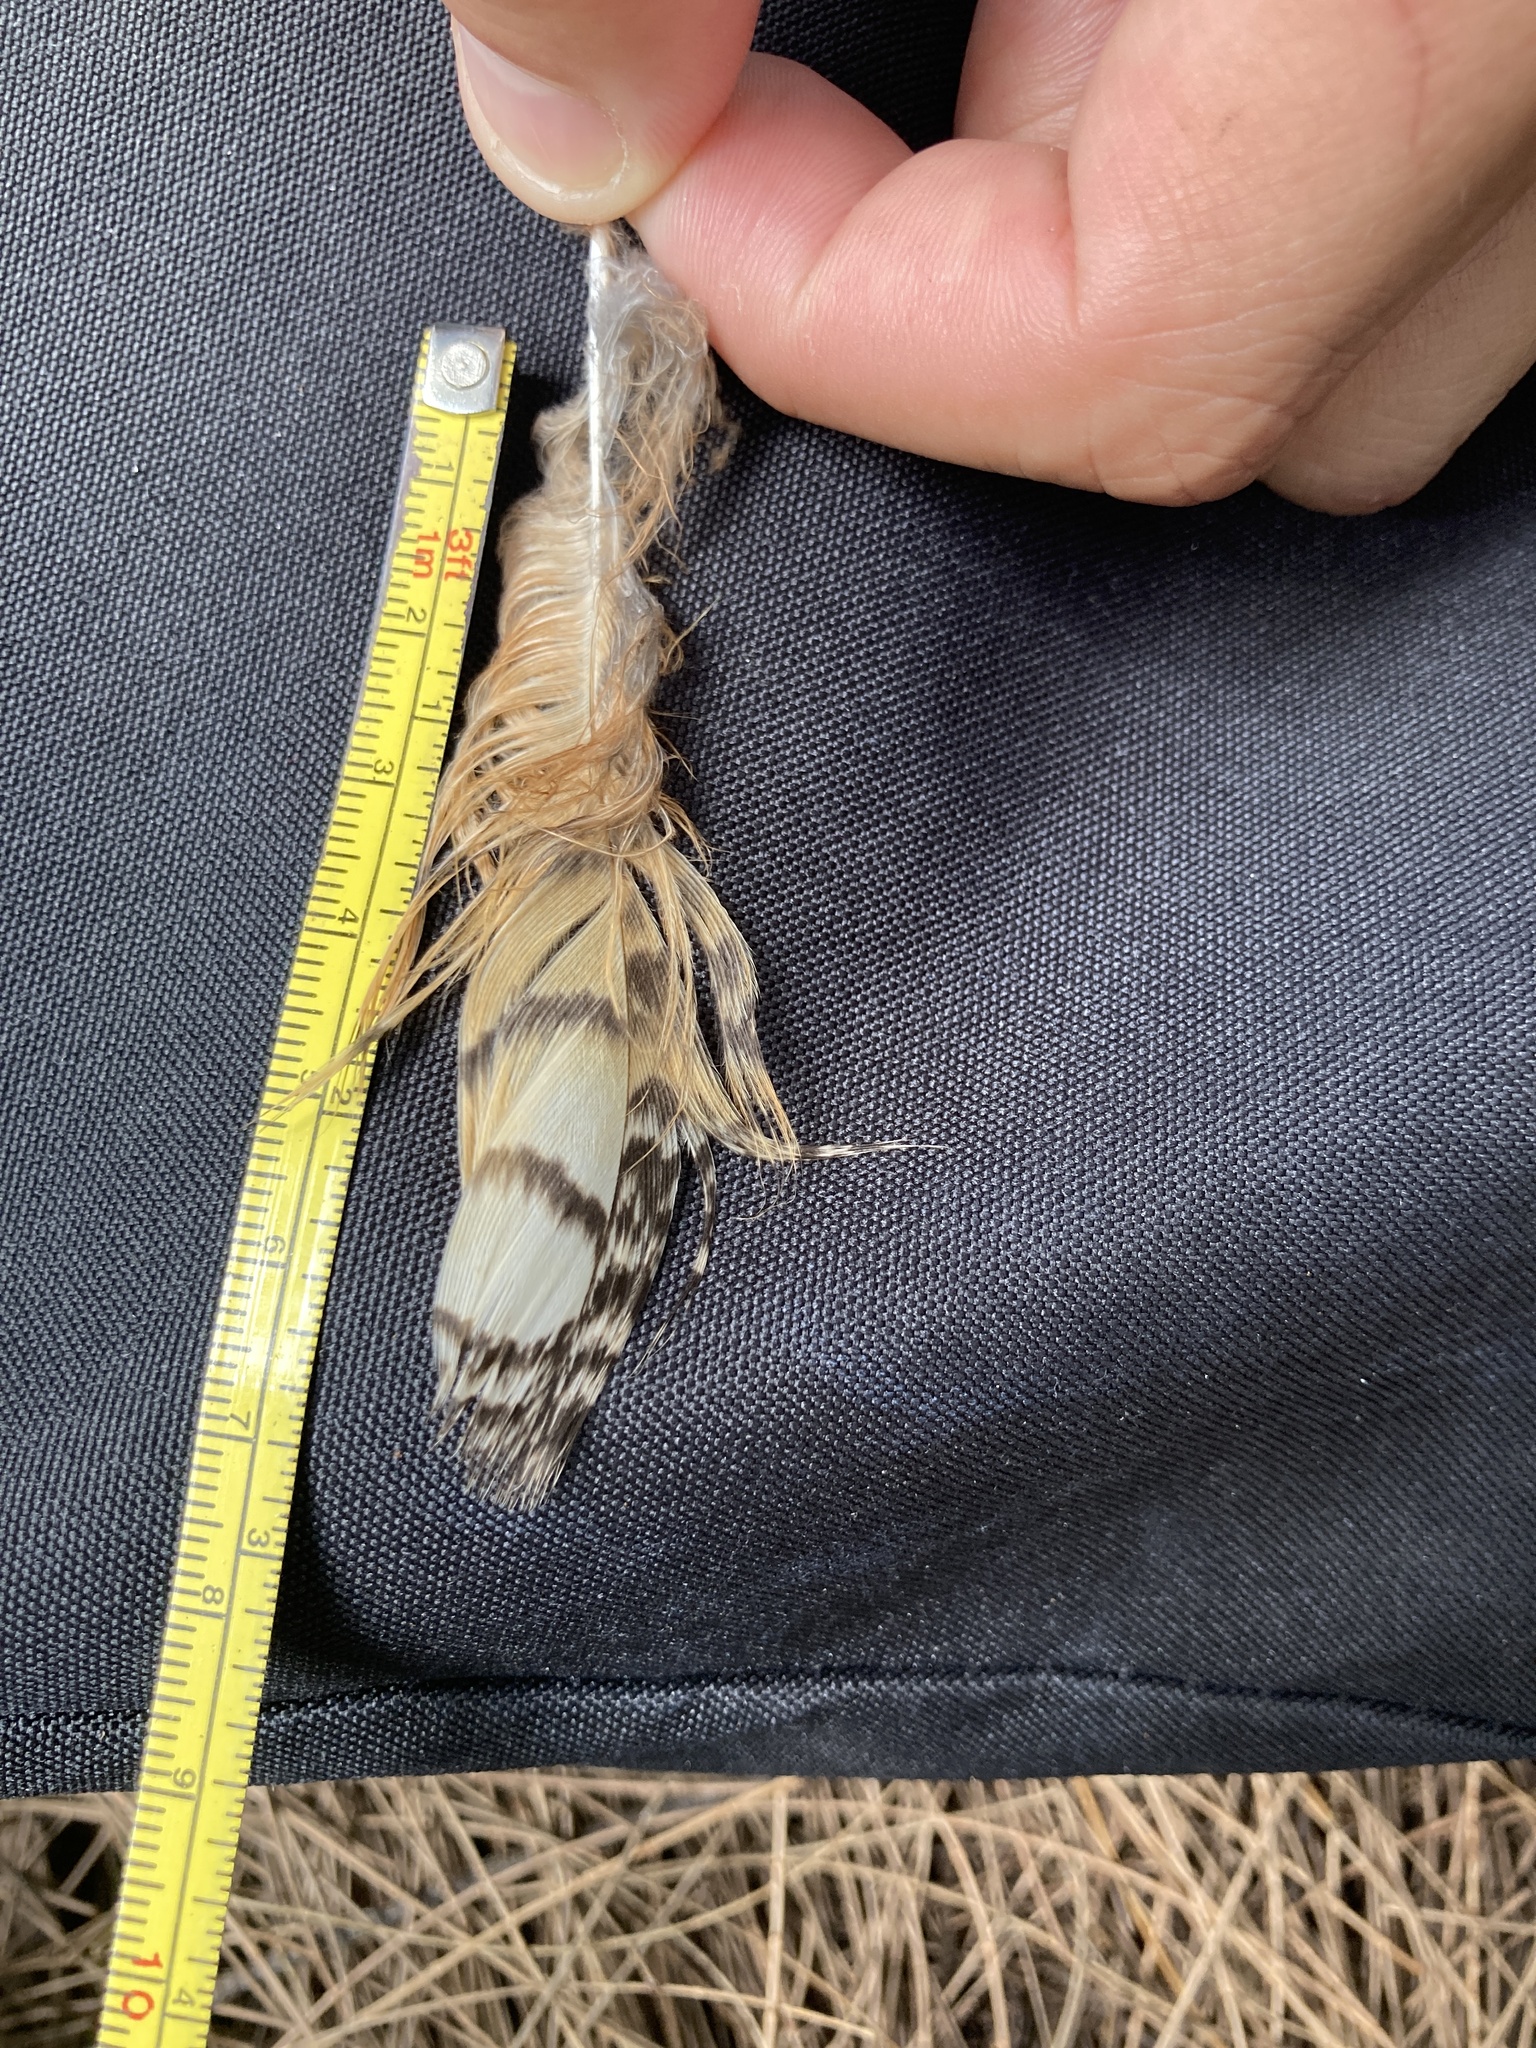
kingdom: Animalia
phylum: Chordata
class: Aves
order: Strigiformes
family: Strigidae
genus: Bubo
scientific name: Bubo virginianus
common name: Great horned owl
